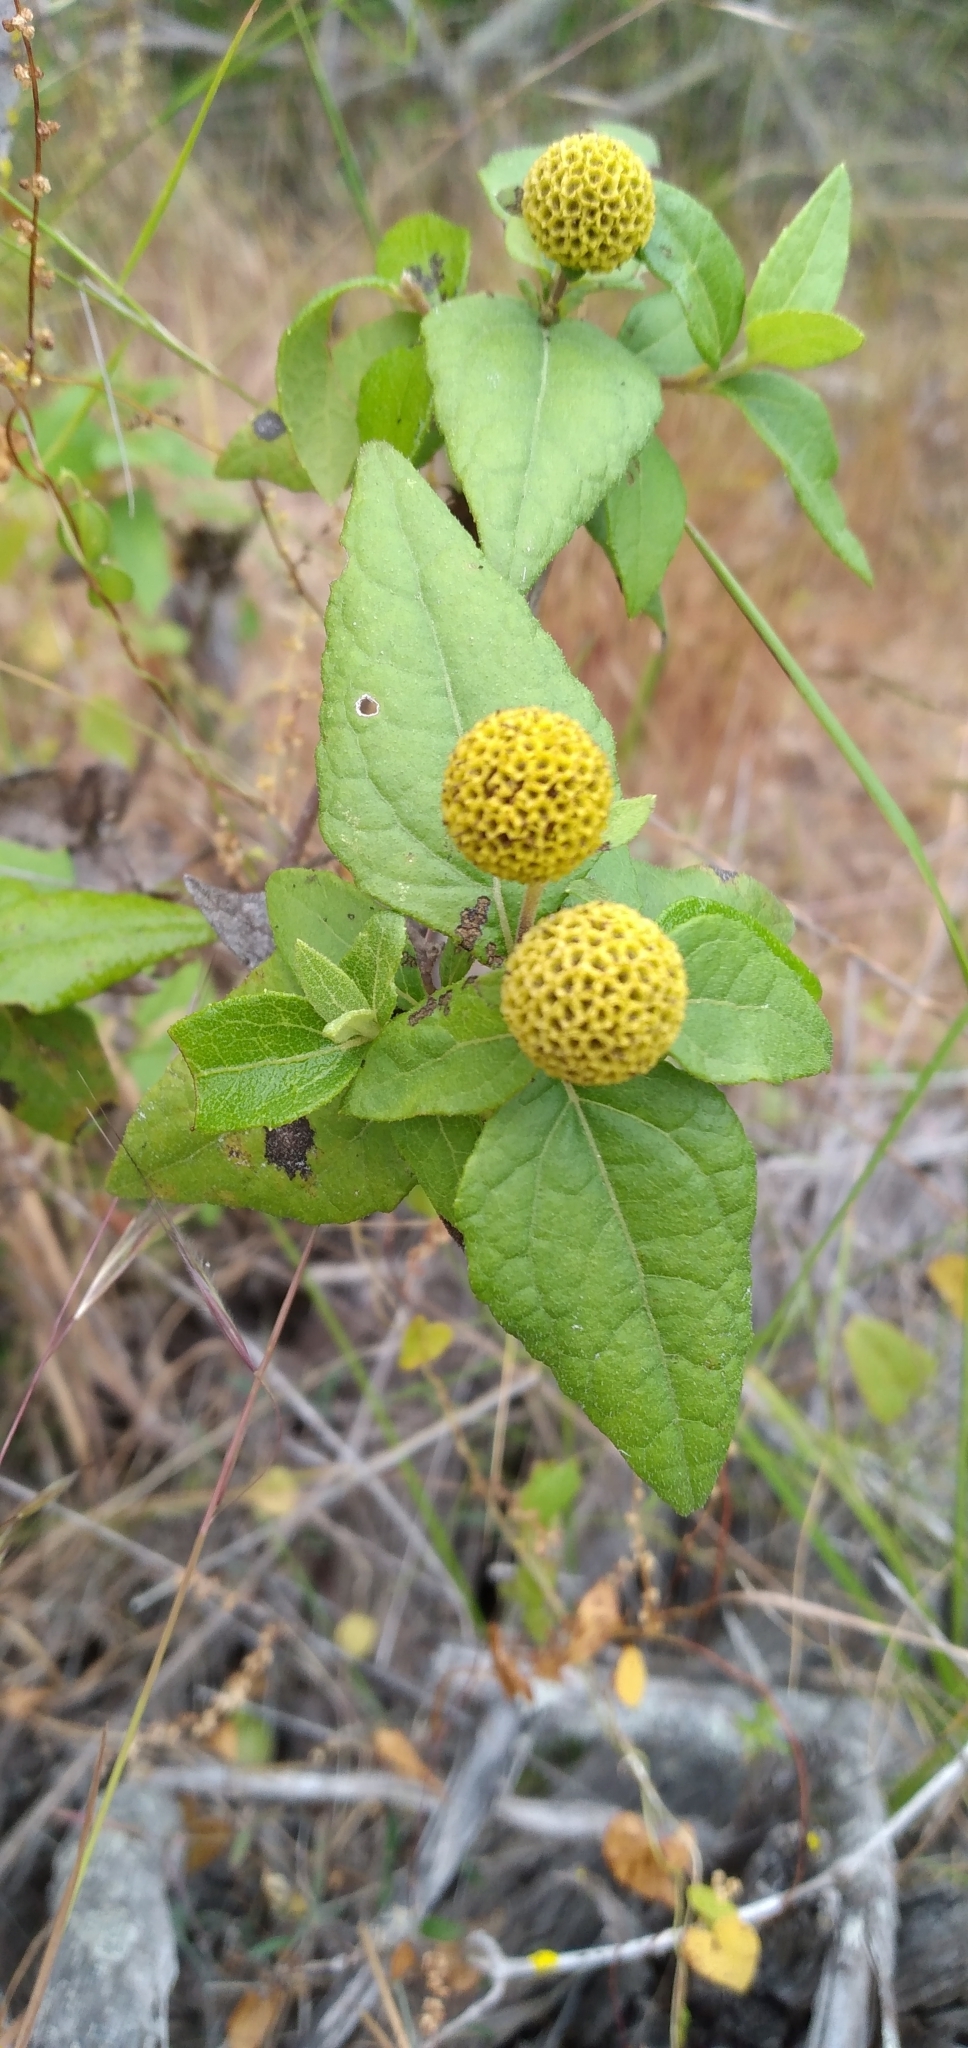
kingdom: Plantae
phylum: Tracheophyta
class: Magnoliopsida
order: Asterales
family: Asteraceae
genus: Podanthus
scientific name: Podanthus mitiqui
